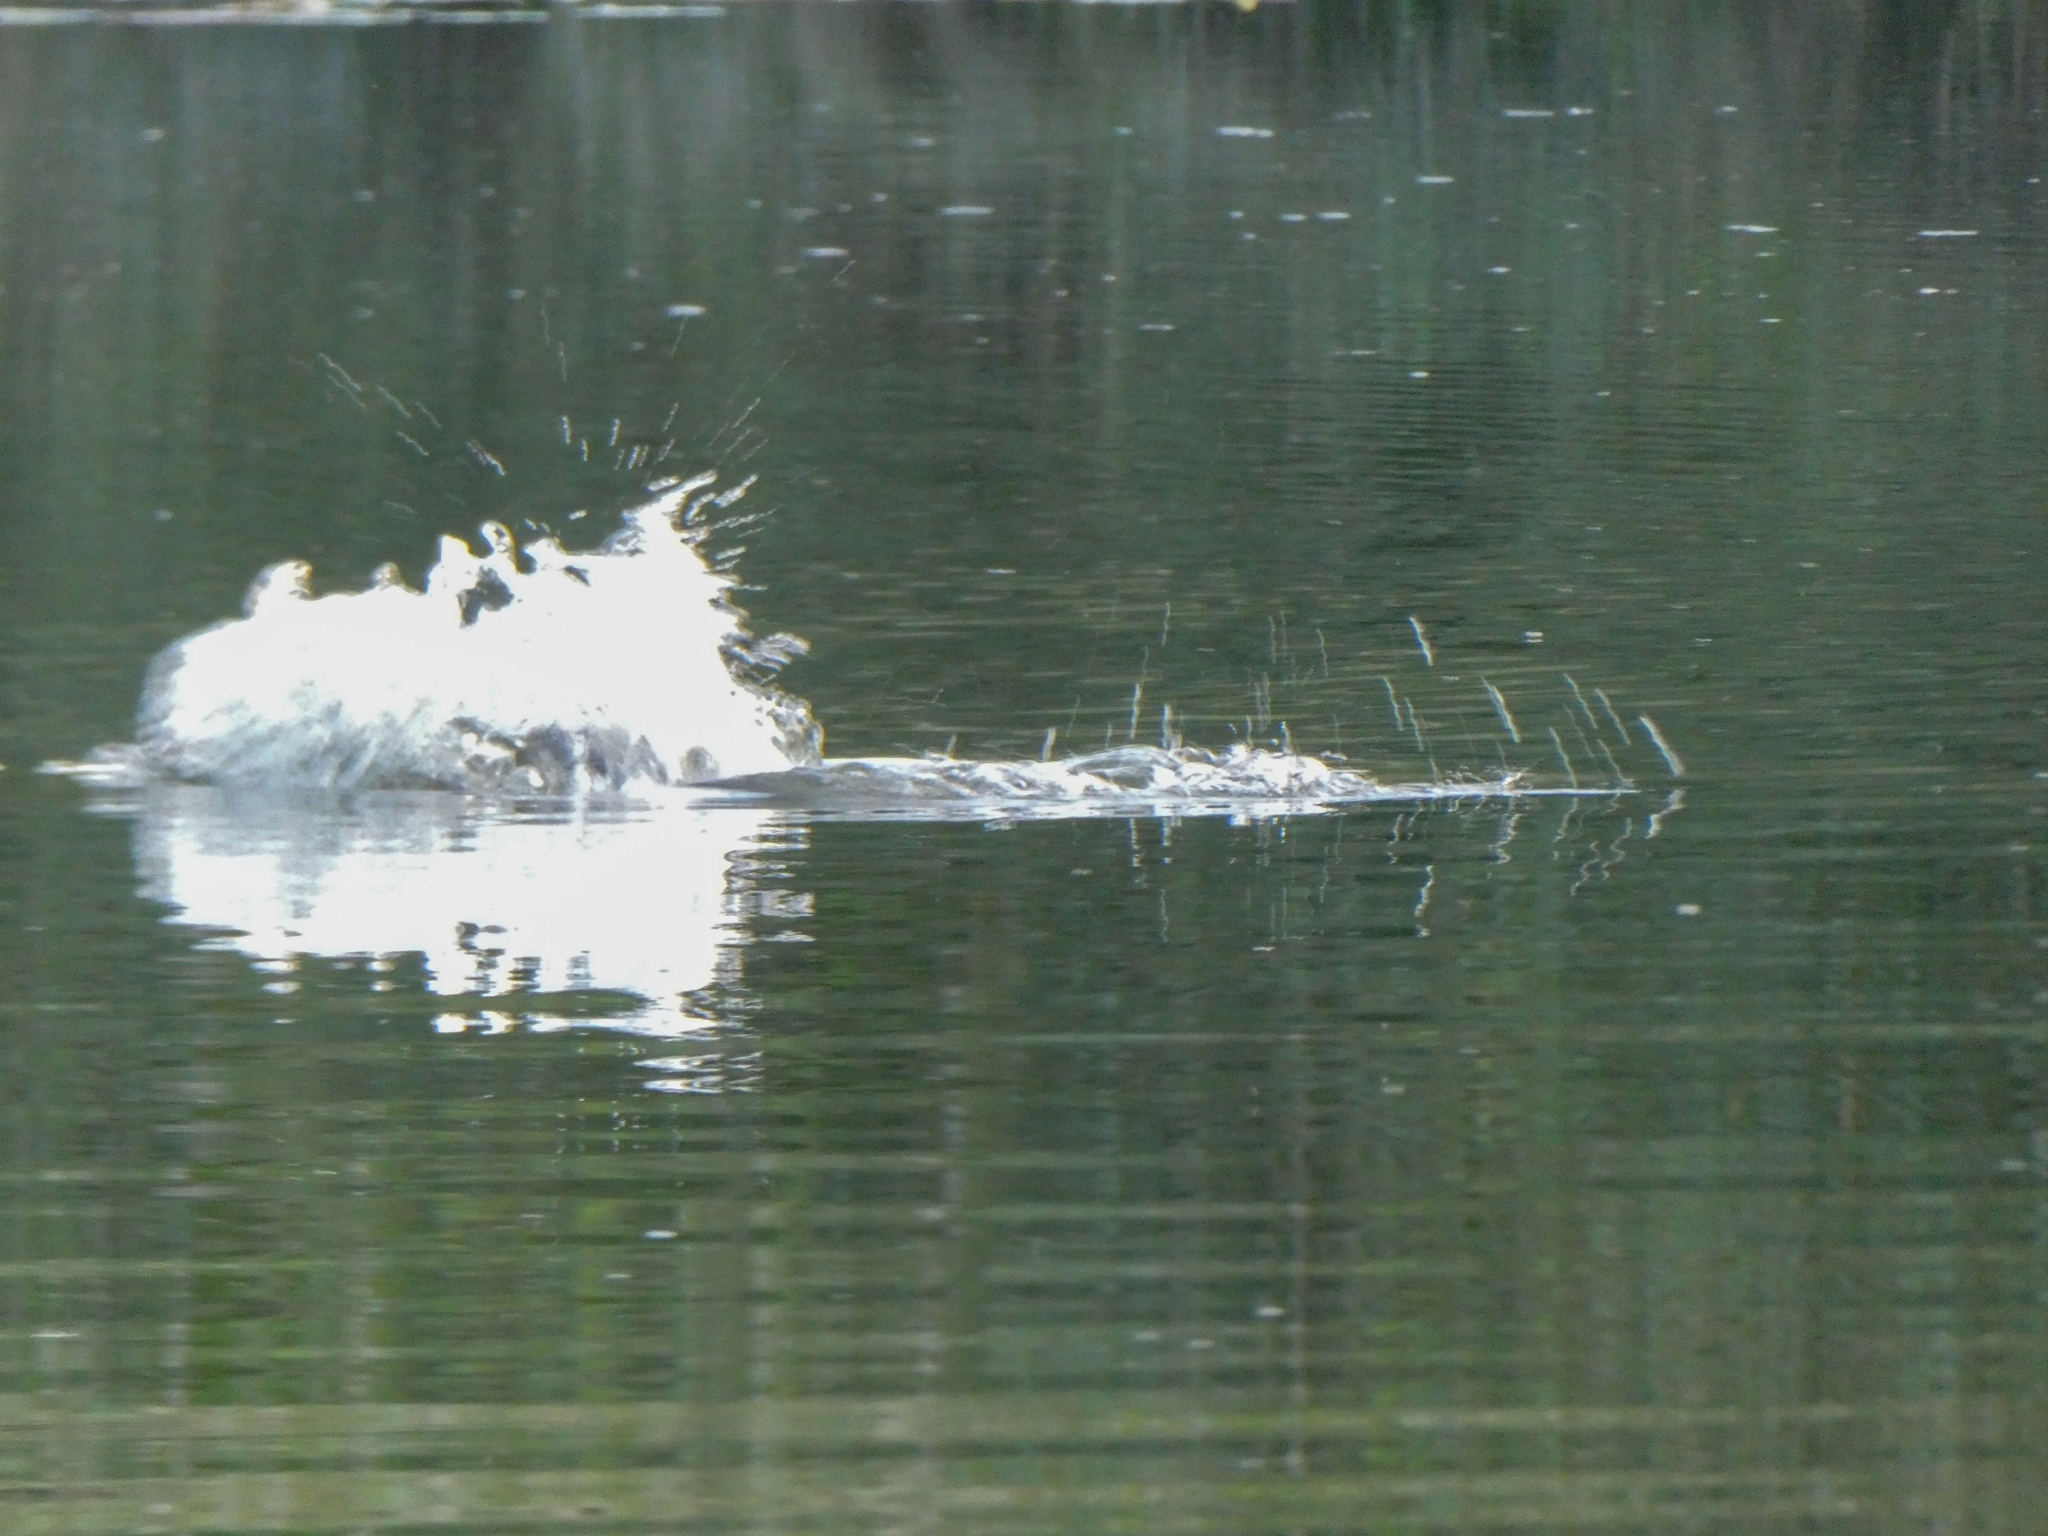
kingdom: Animalia
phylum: Chordata
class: Mammalia
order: Rodentia
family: Castoridae
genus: Castor
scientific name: Castor fiber
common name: Eurasian beaver
